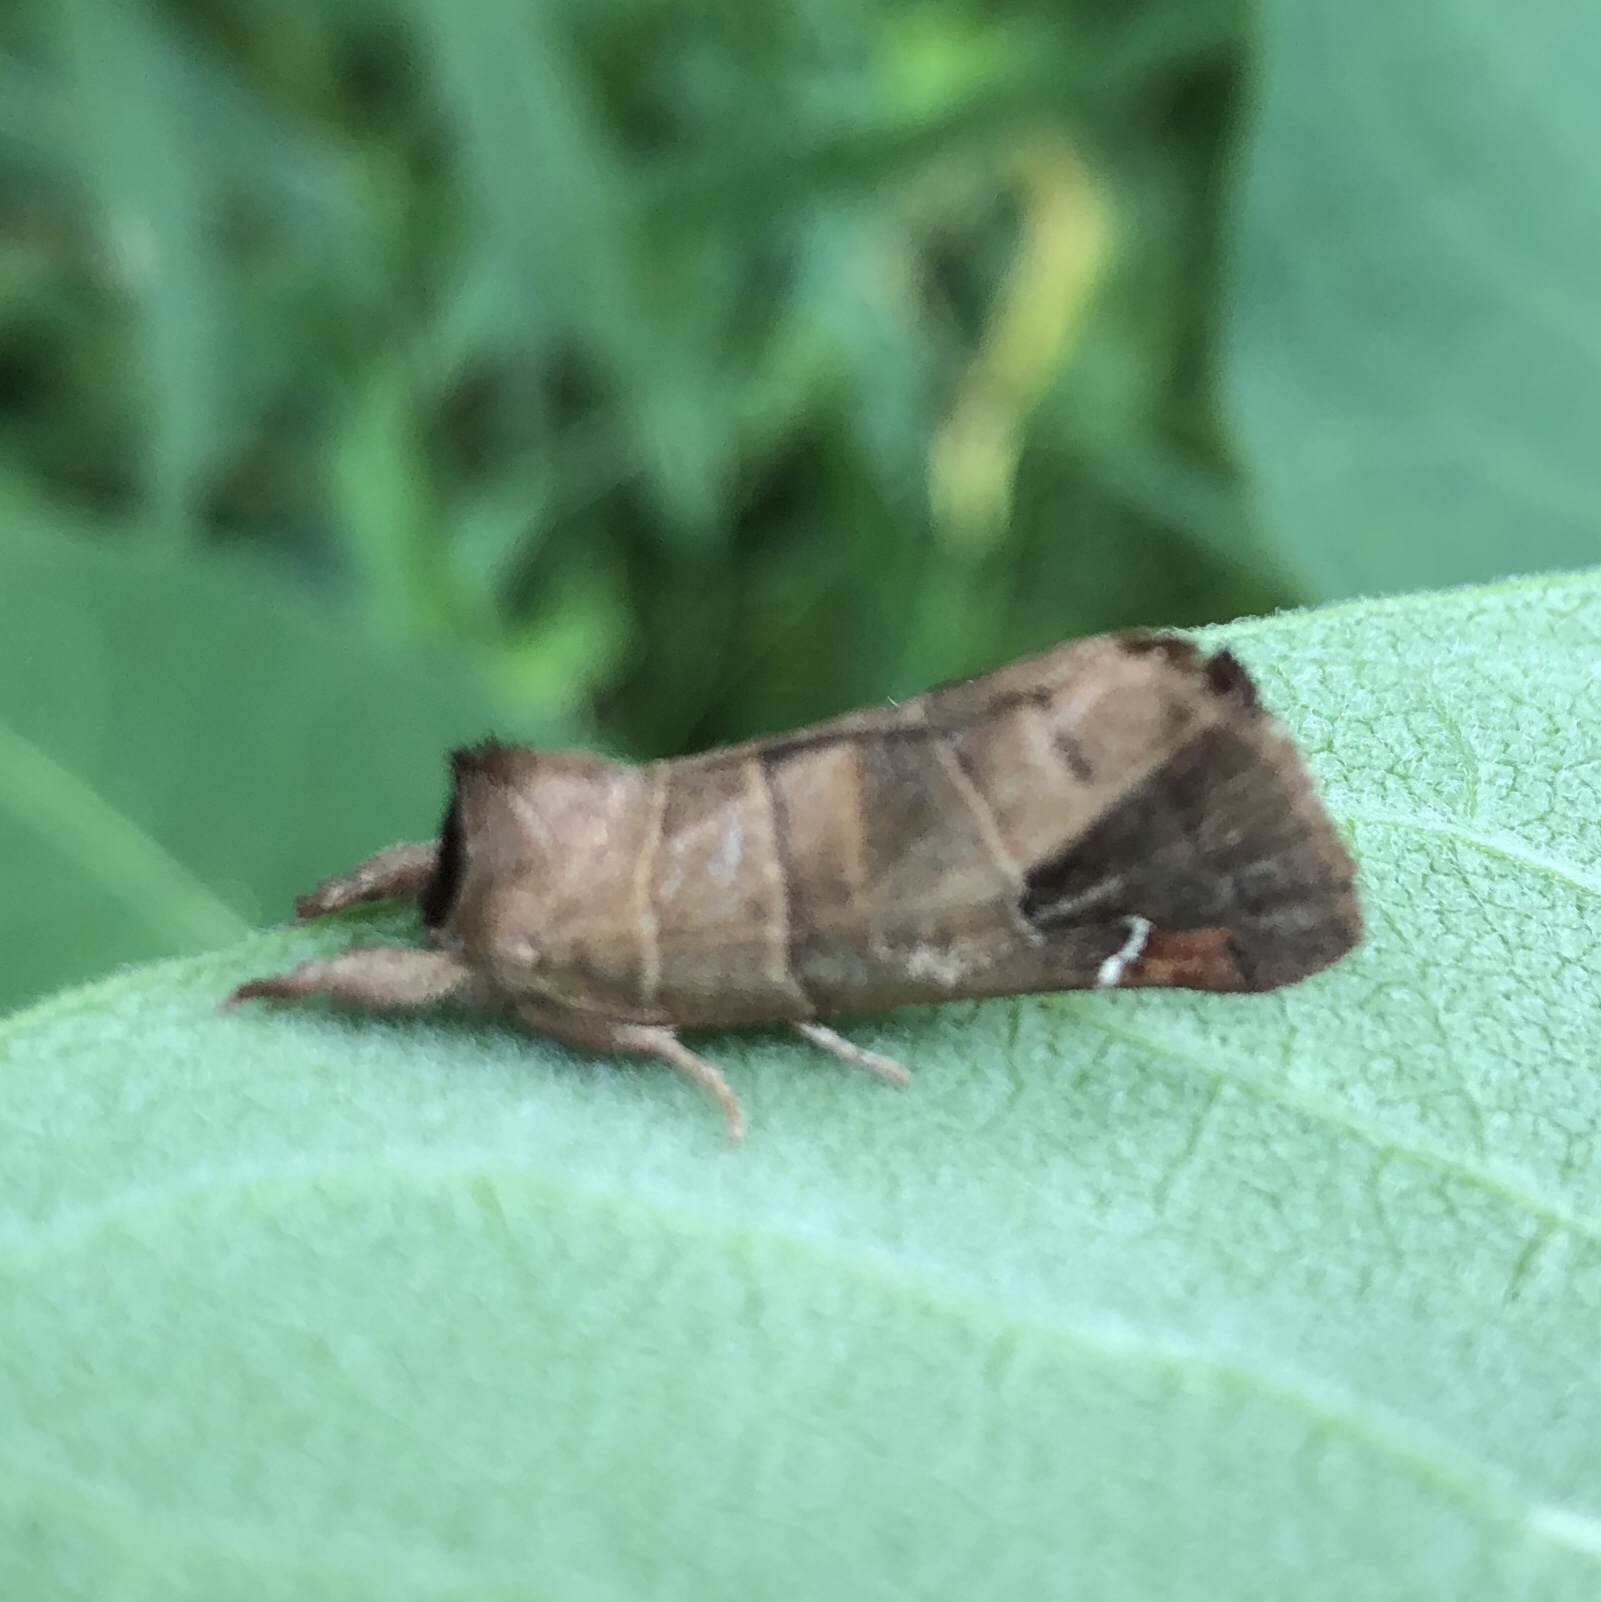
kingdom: Animalia
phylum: Arthropoda
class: Insecta
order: Lepidoptera
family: Notodontidae
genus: Clostera
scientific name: Clostera albosigma
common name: Sigmoid prominent
